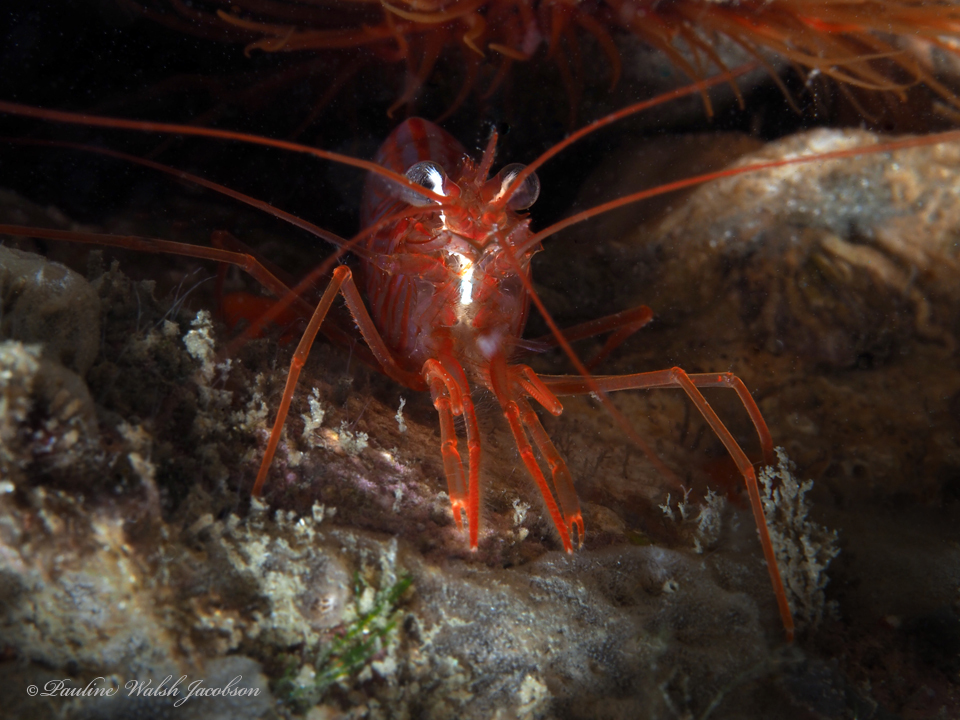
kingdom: Animalia
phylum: Arthropoda
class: Malacostraca
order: Decapoda
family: Lysmatidae
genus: Lysmata
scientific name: Lysmata rafa
